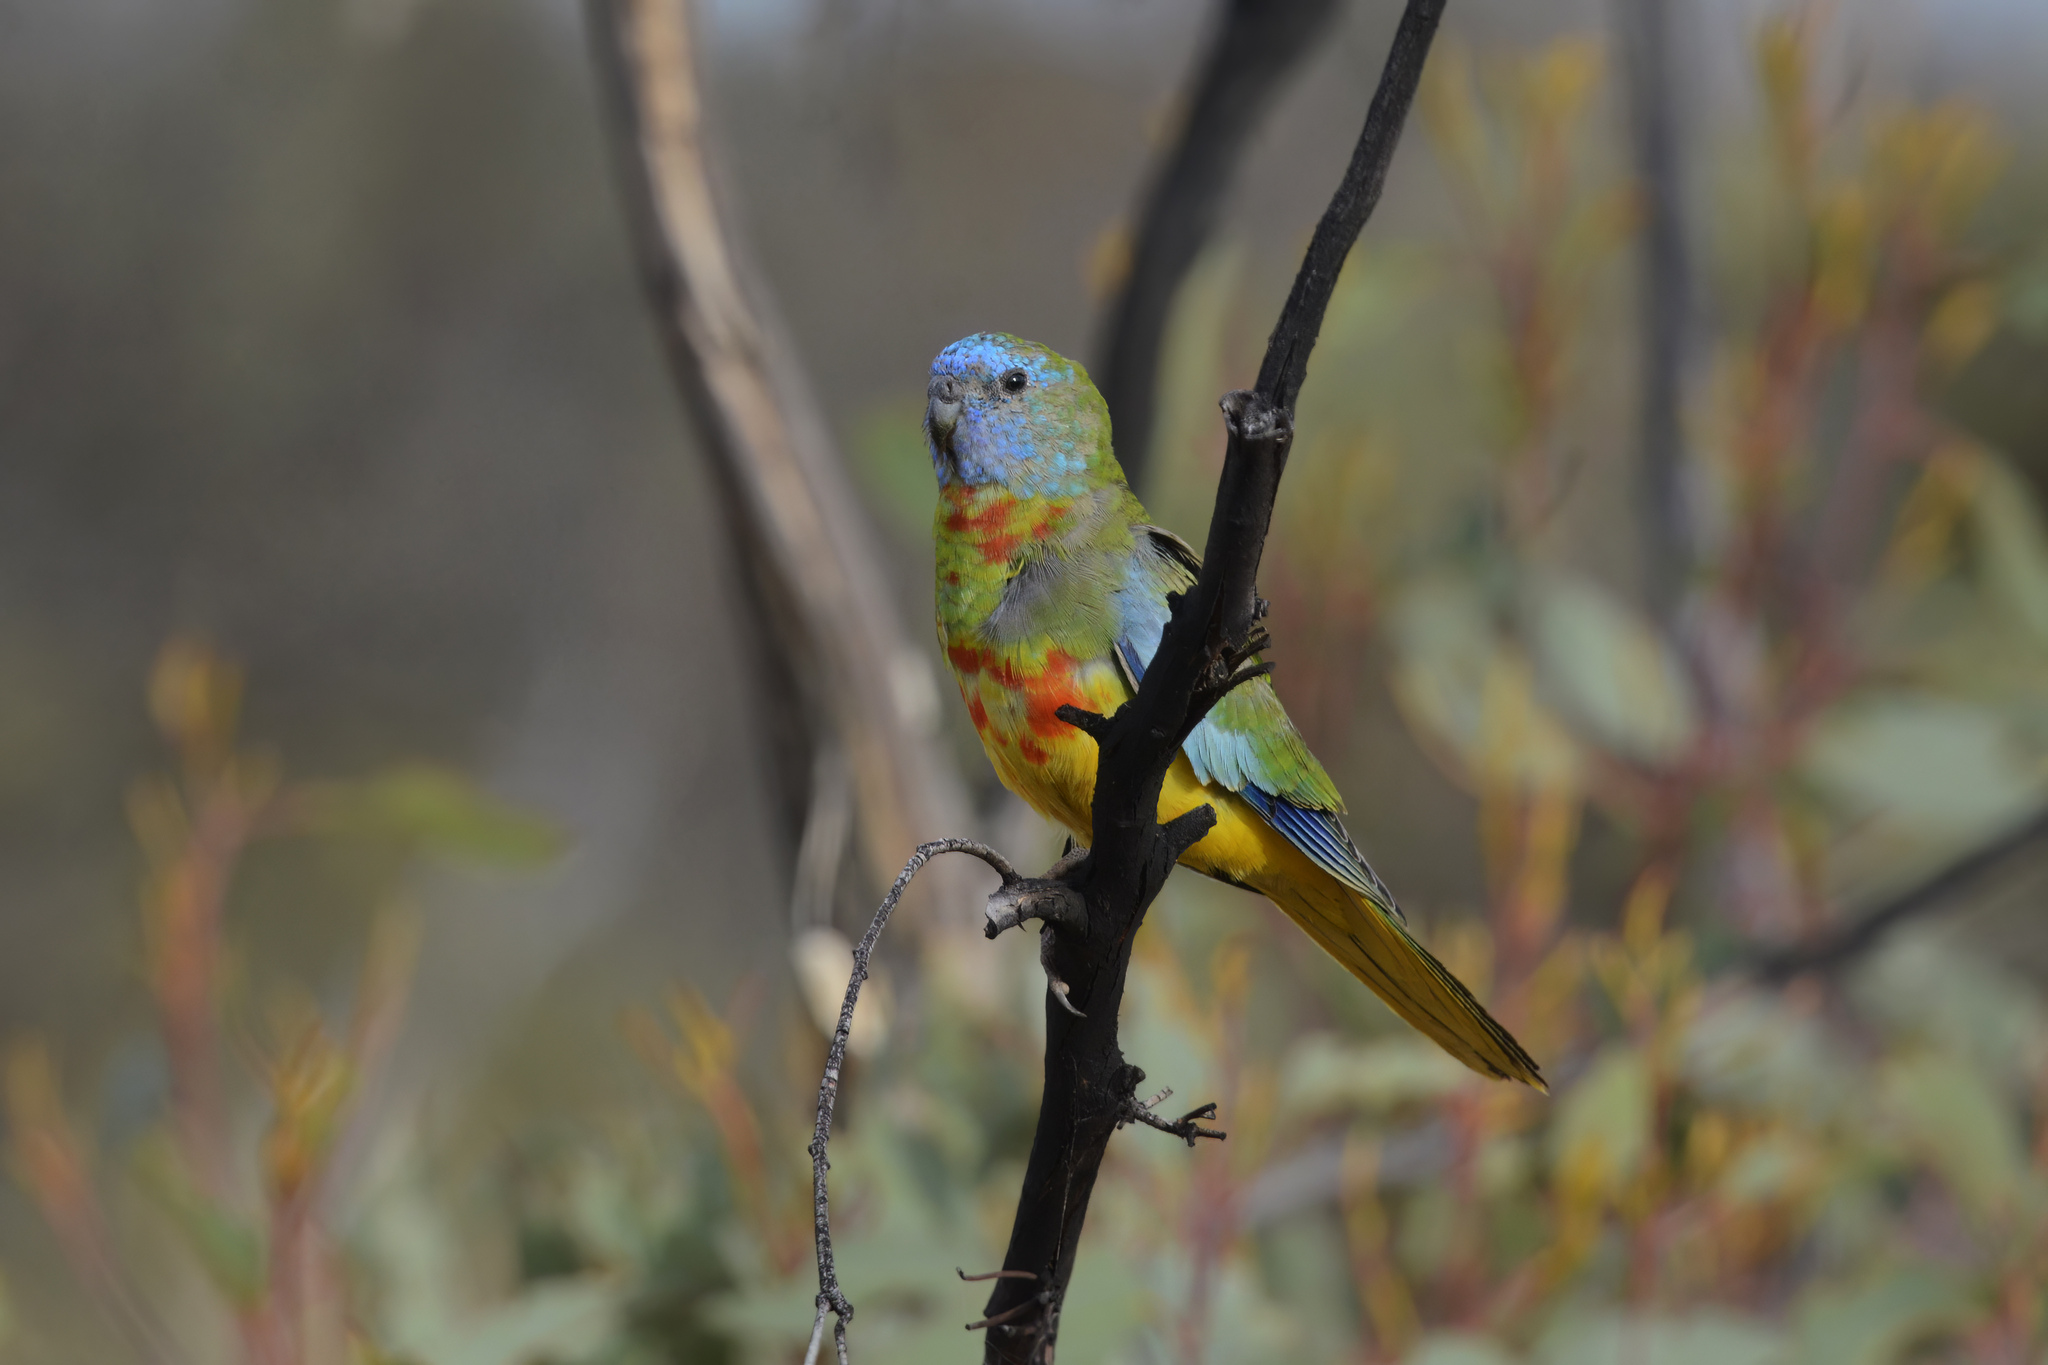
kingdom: Animalia
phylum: Chordata
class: Aves
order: Psittaciformes
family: Psittacidae
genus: Neophema
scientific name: Neophema splendida
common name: Scarlet-chested parrot
